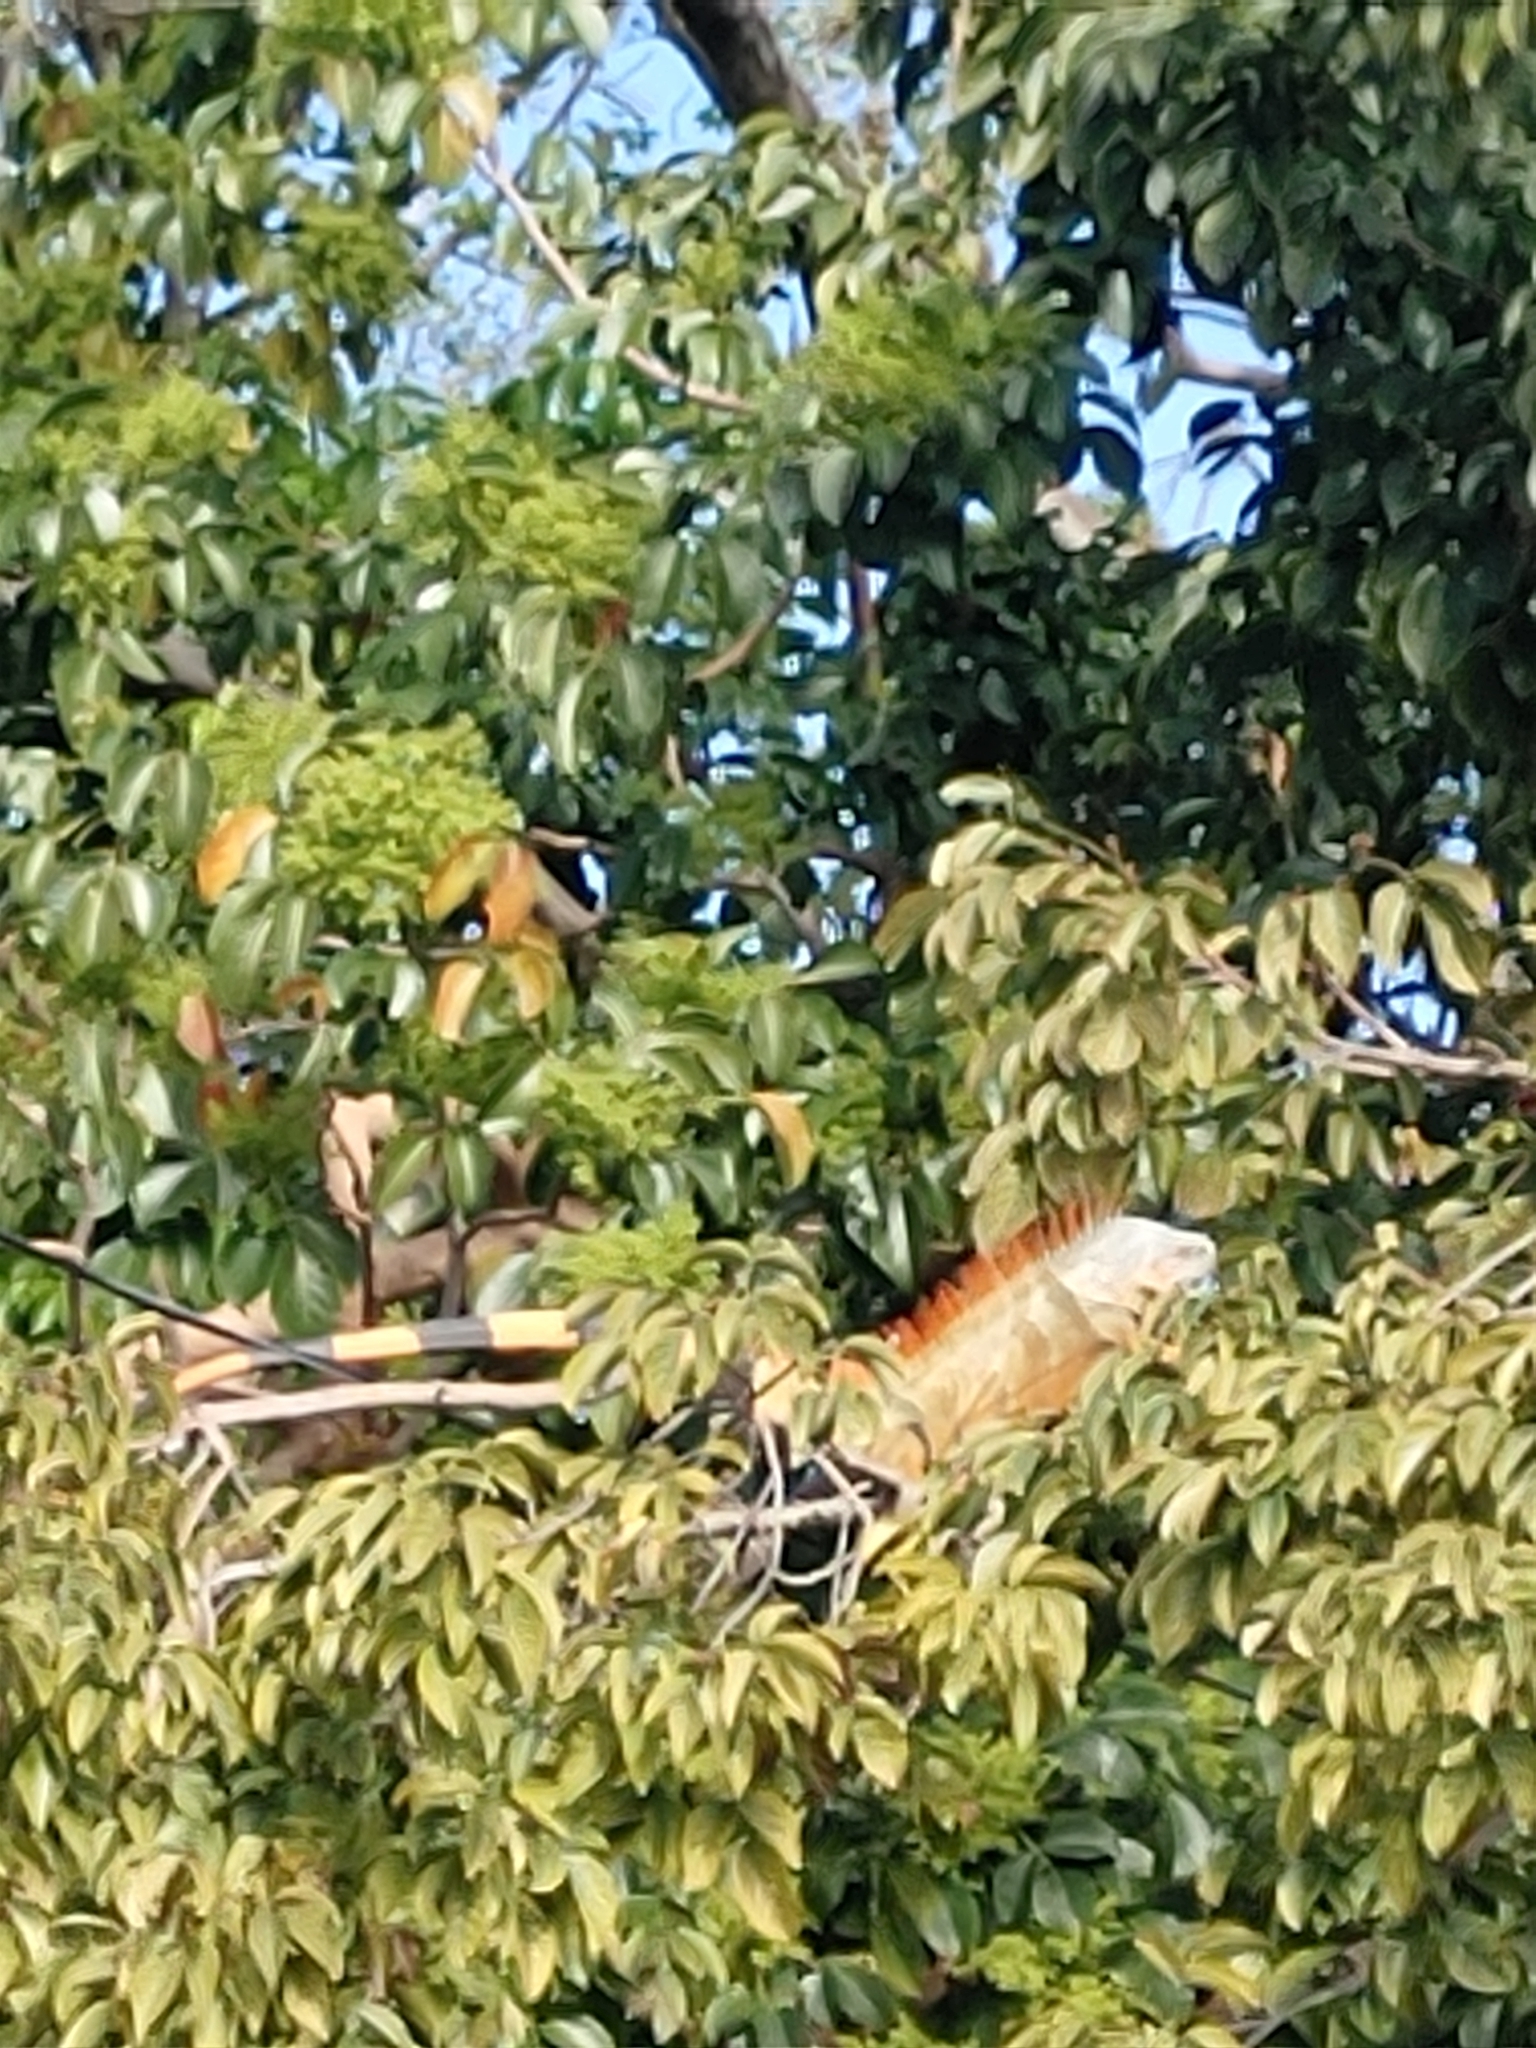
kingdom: Animalia
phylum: Chordata
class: Squamata
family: Iguanidae
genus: Iguana
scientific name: Iguana iguana
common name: Green iguana
